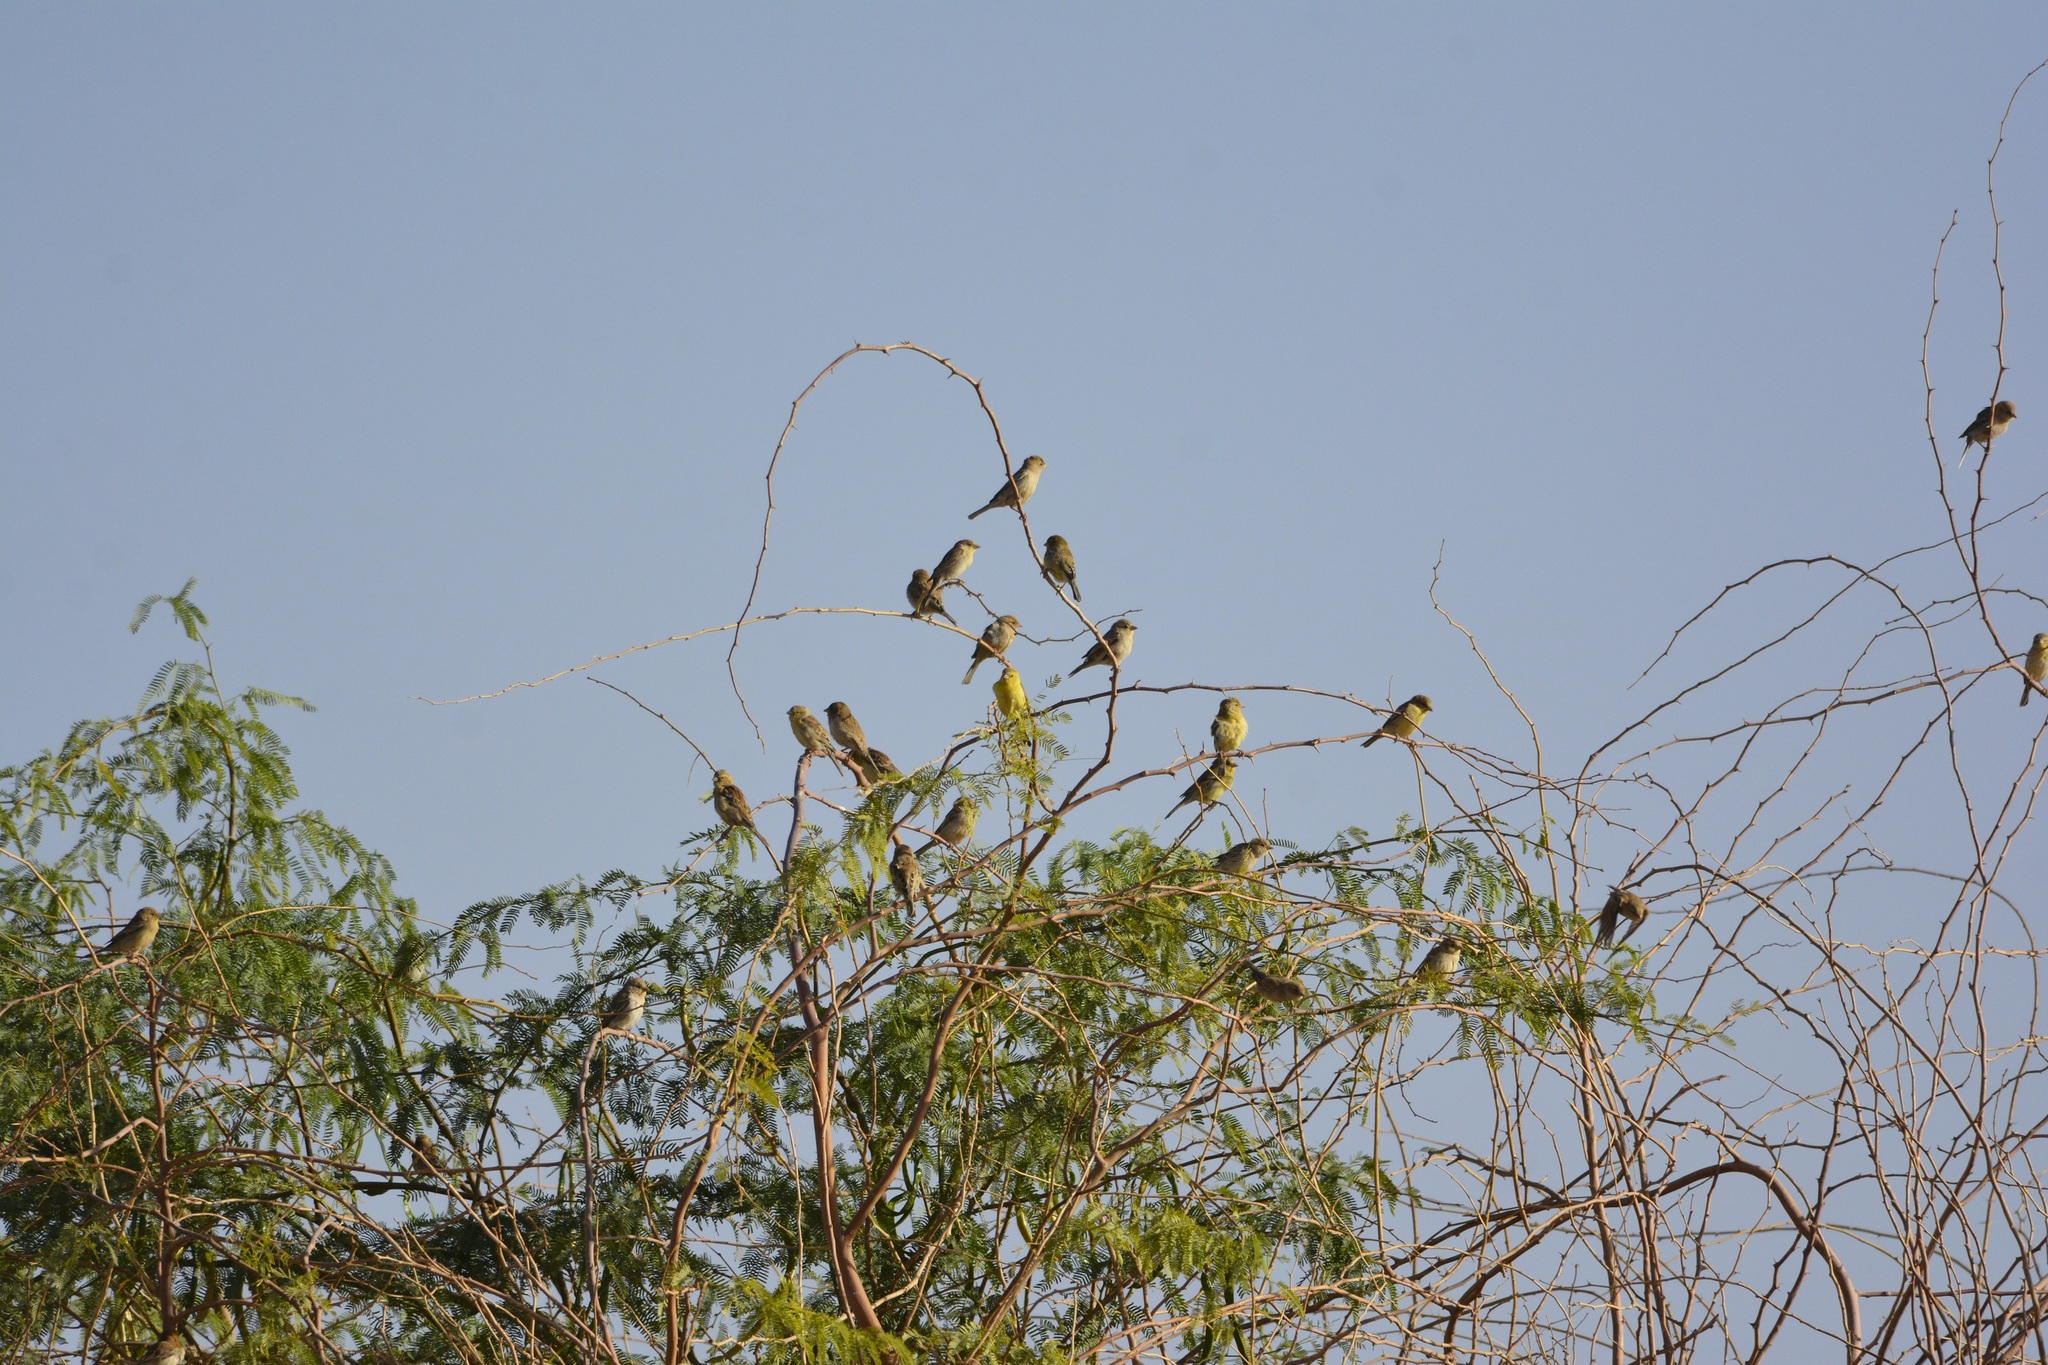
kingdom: Animalia
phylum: Chordata
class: Aves
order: Passeriformes
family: Passeridae
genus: Passer
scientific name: Passer luteus
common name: Sudan golden sparrow
